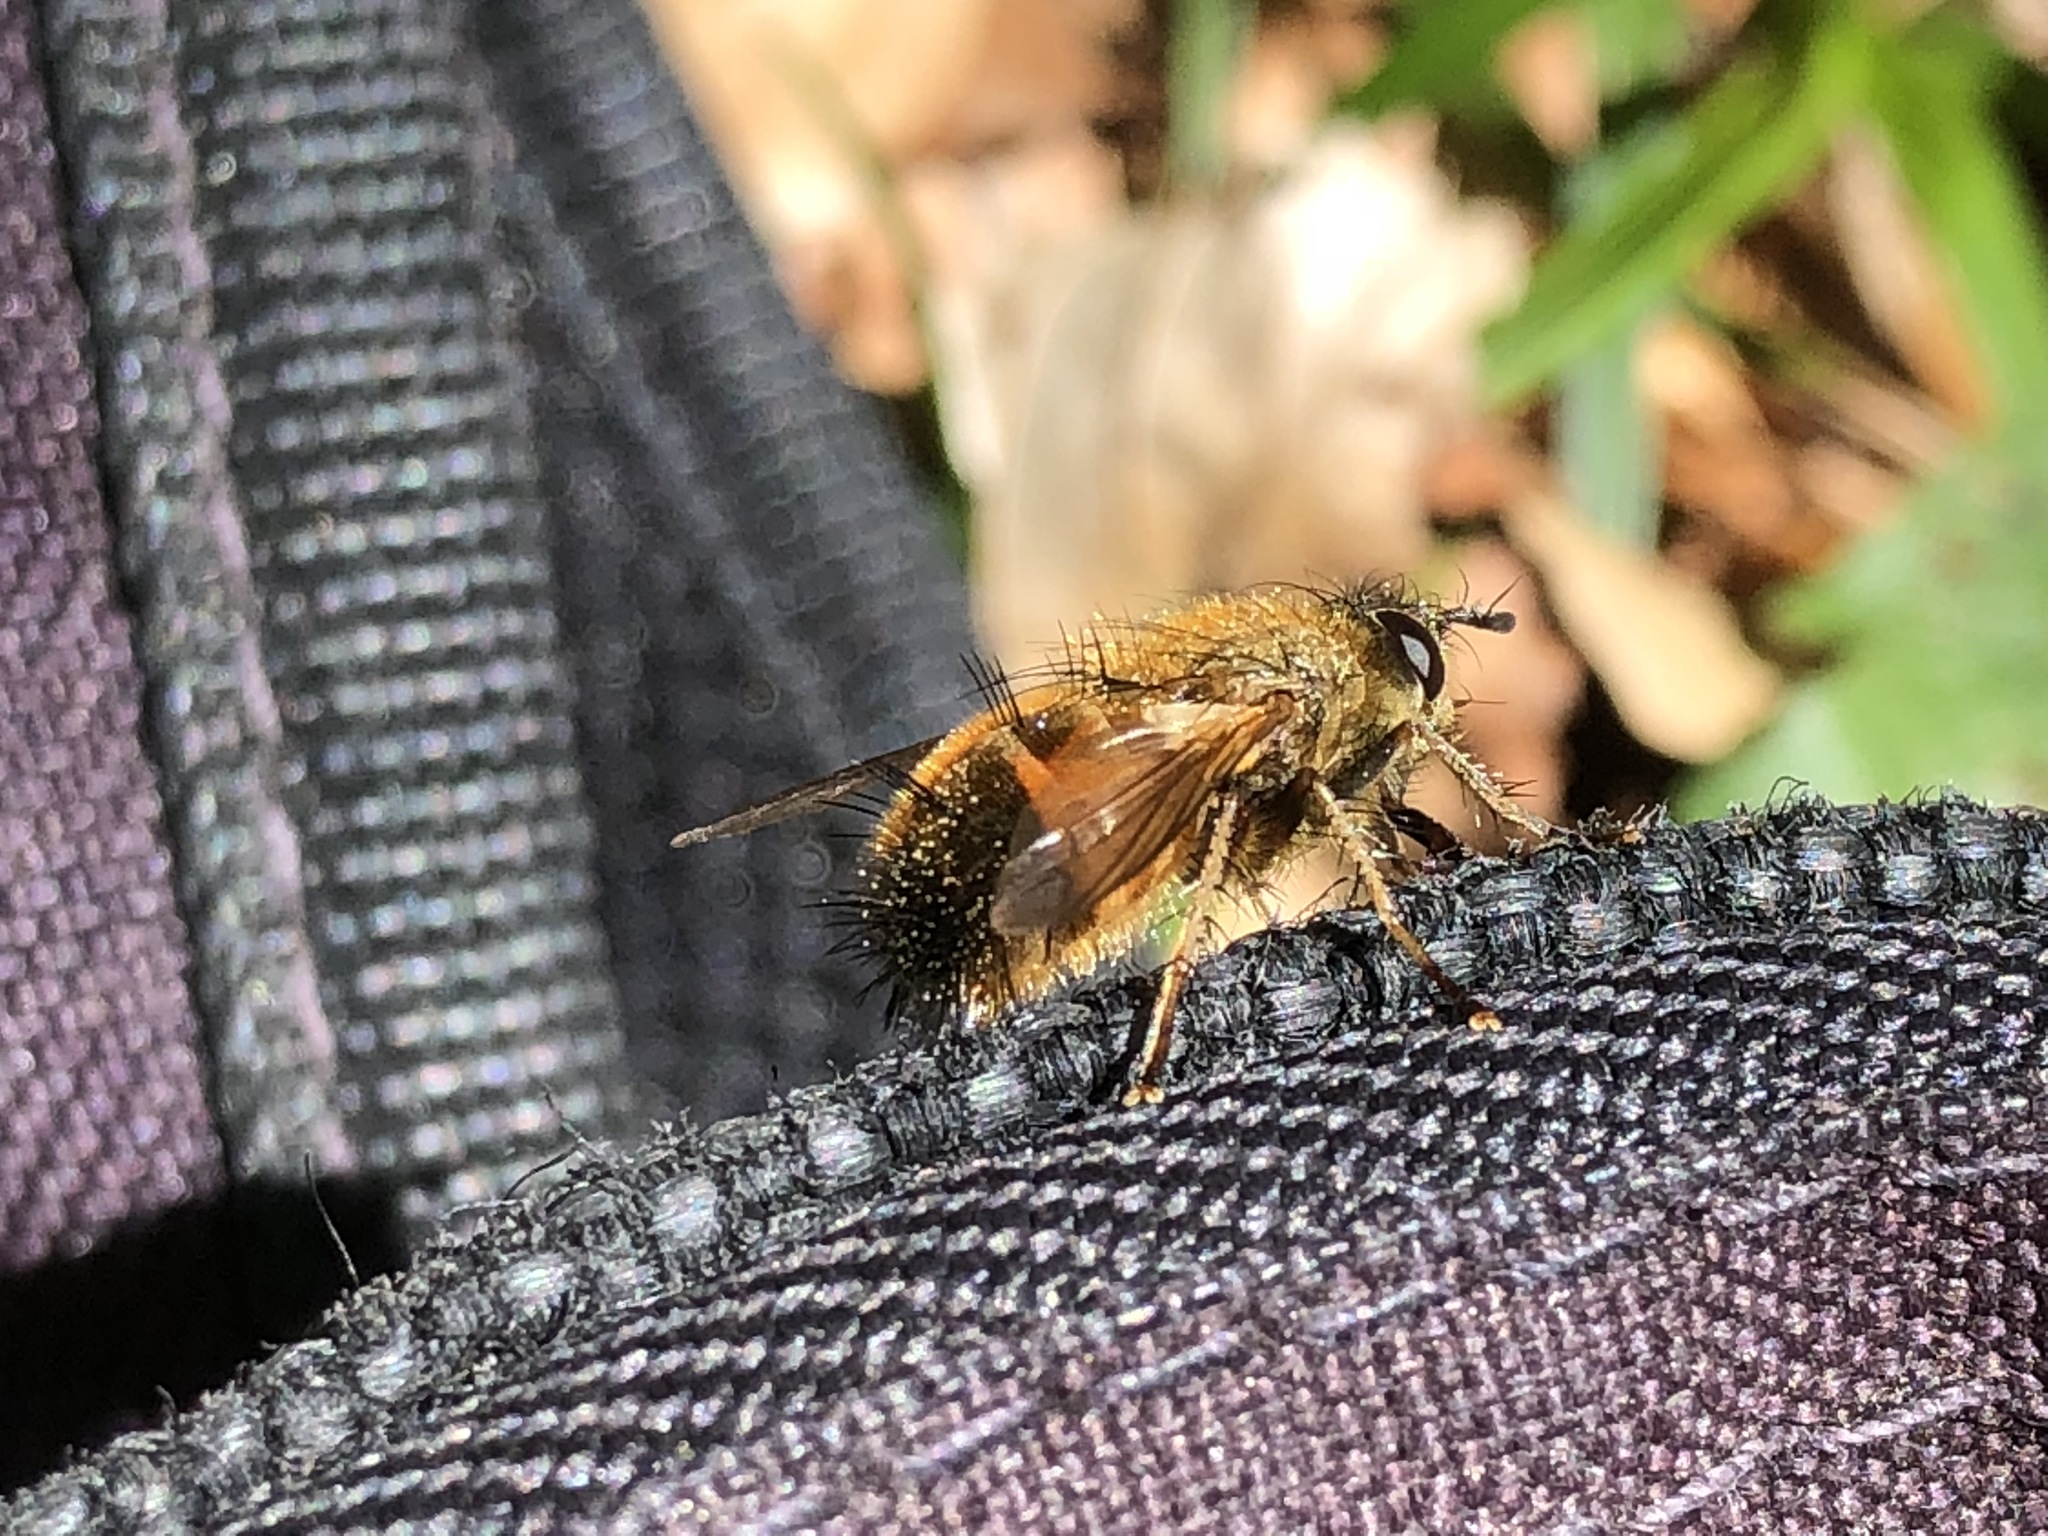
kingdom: Animalia
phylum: Arthropoda
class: Insecta
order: Diptera
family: Tachinidae
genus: Tachina
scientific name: Tachina lurida
